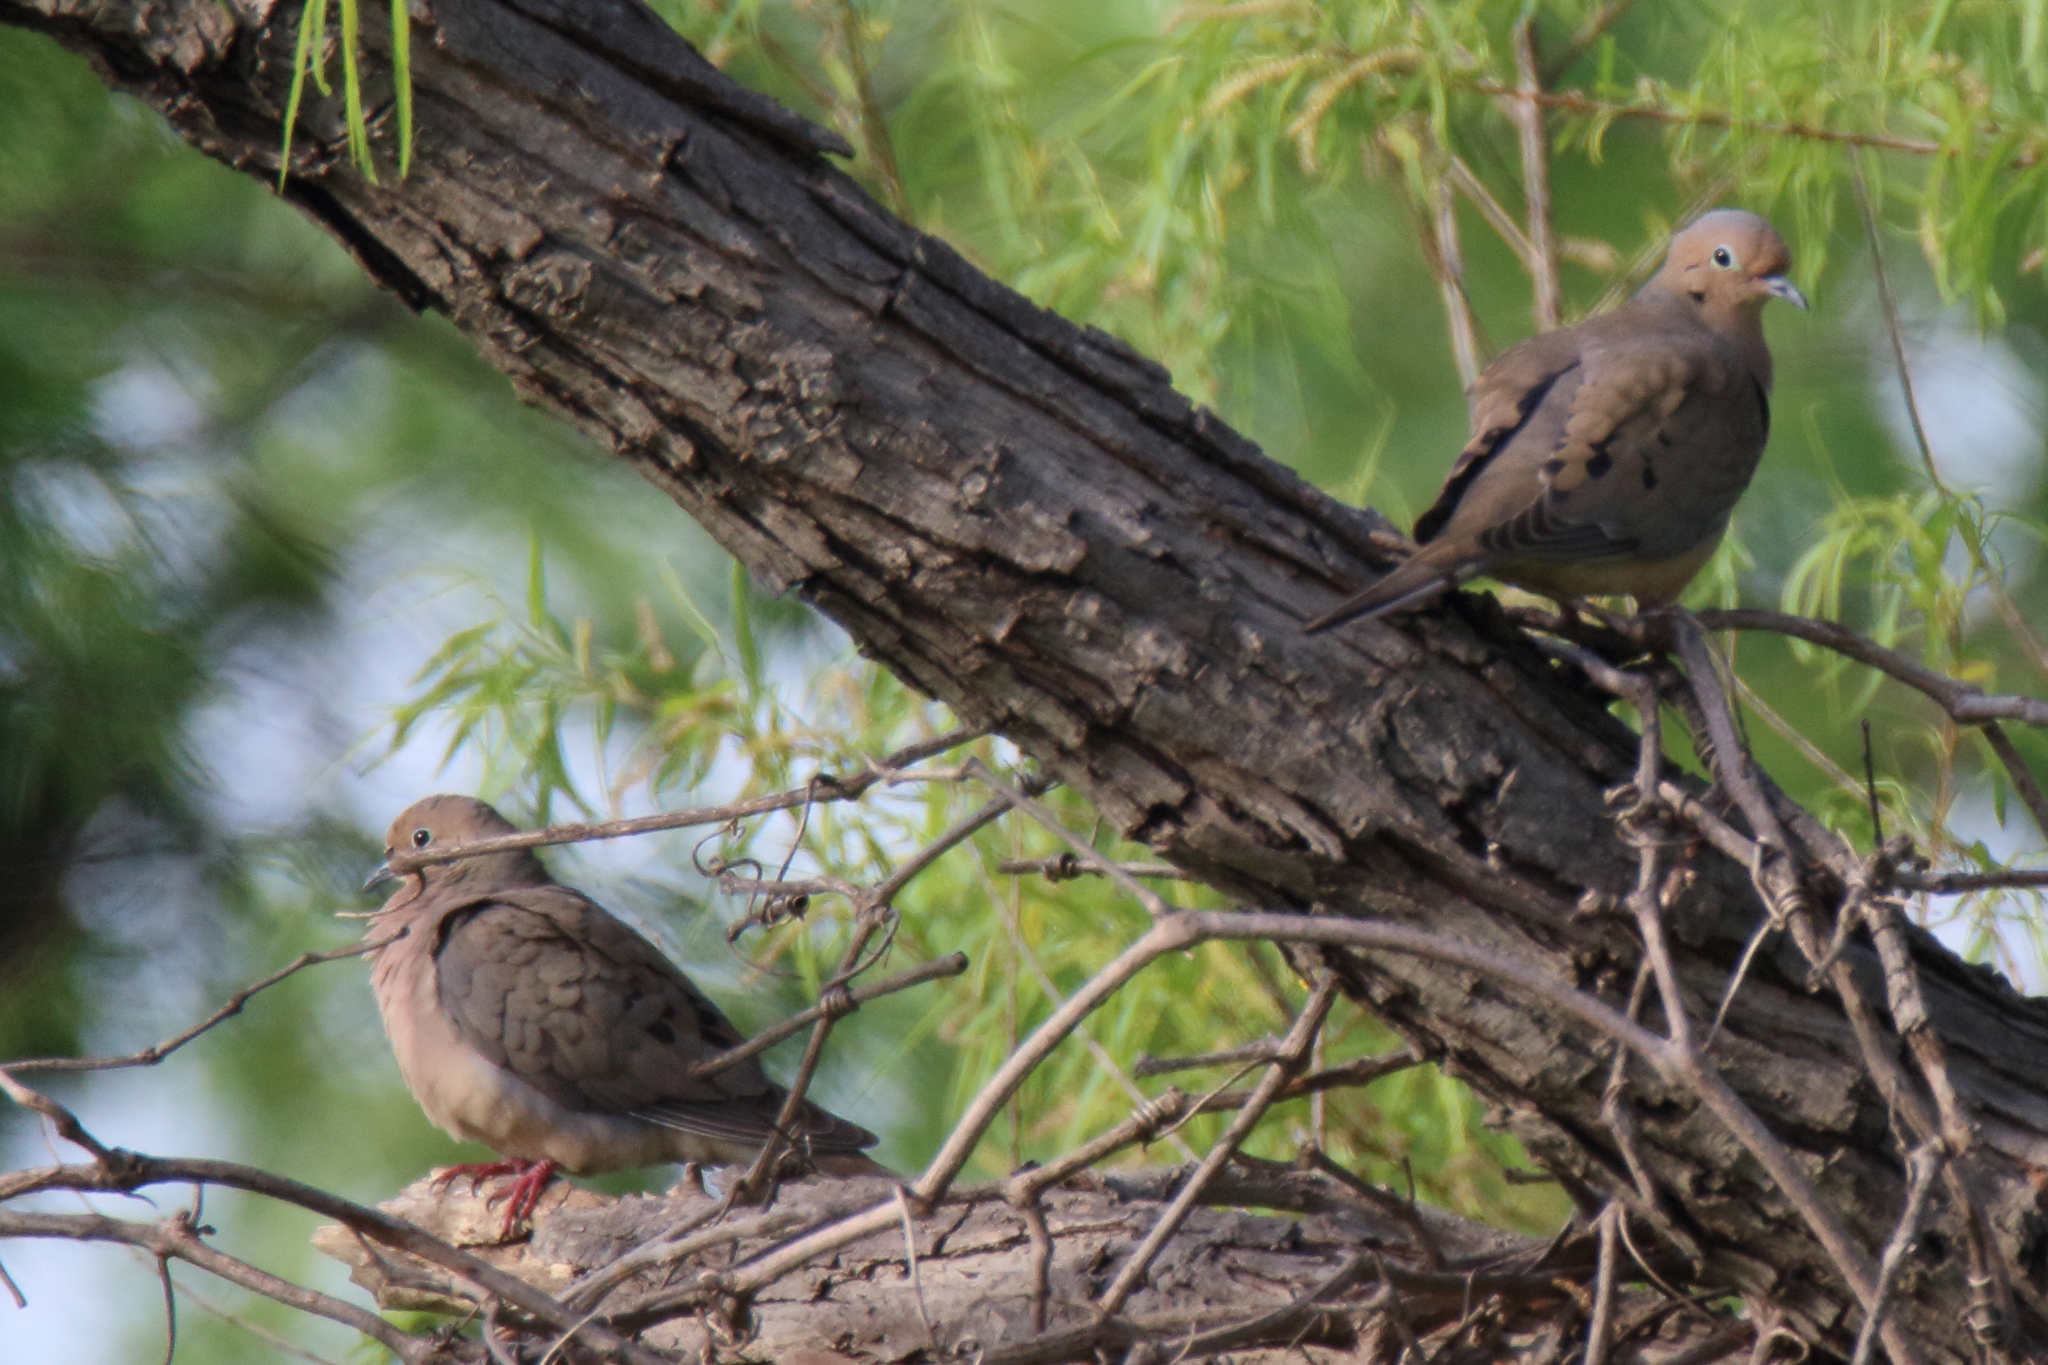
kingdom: Animalia
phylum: Chordata
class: Aves
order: Columbiformes
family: Columbidae
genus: Zenaida
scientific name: Zenaida macroura
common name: Mourning dove
